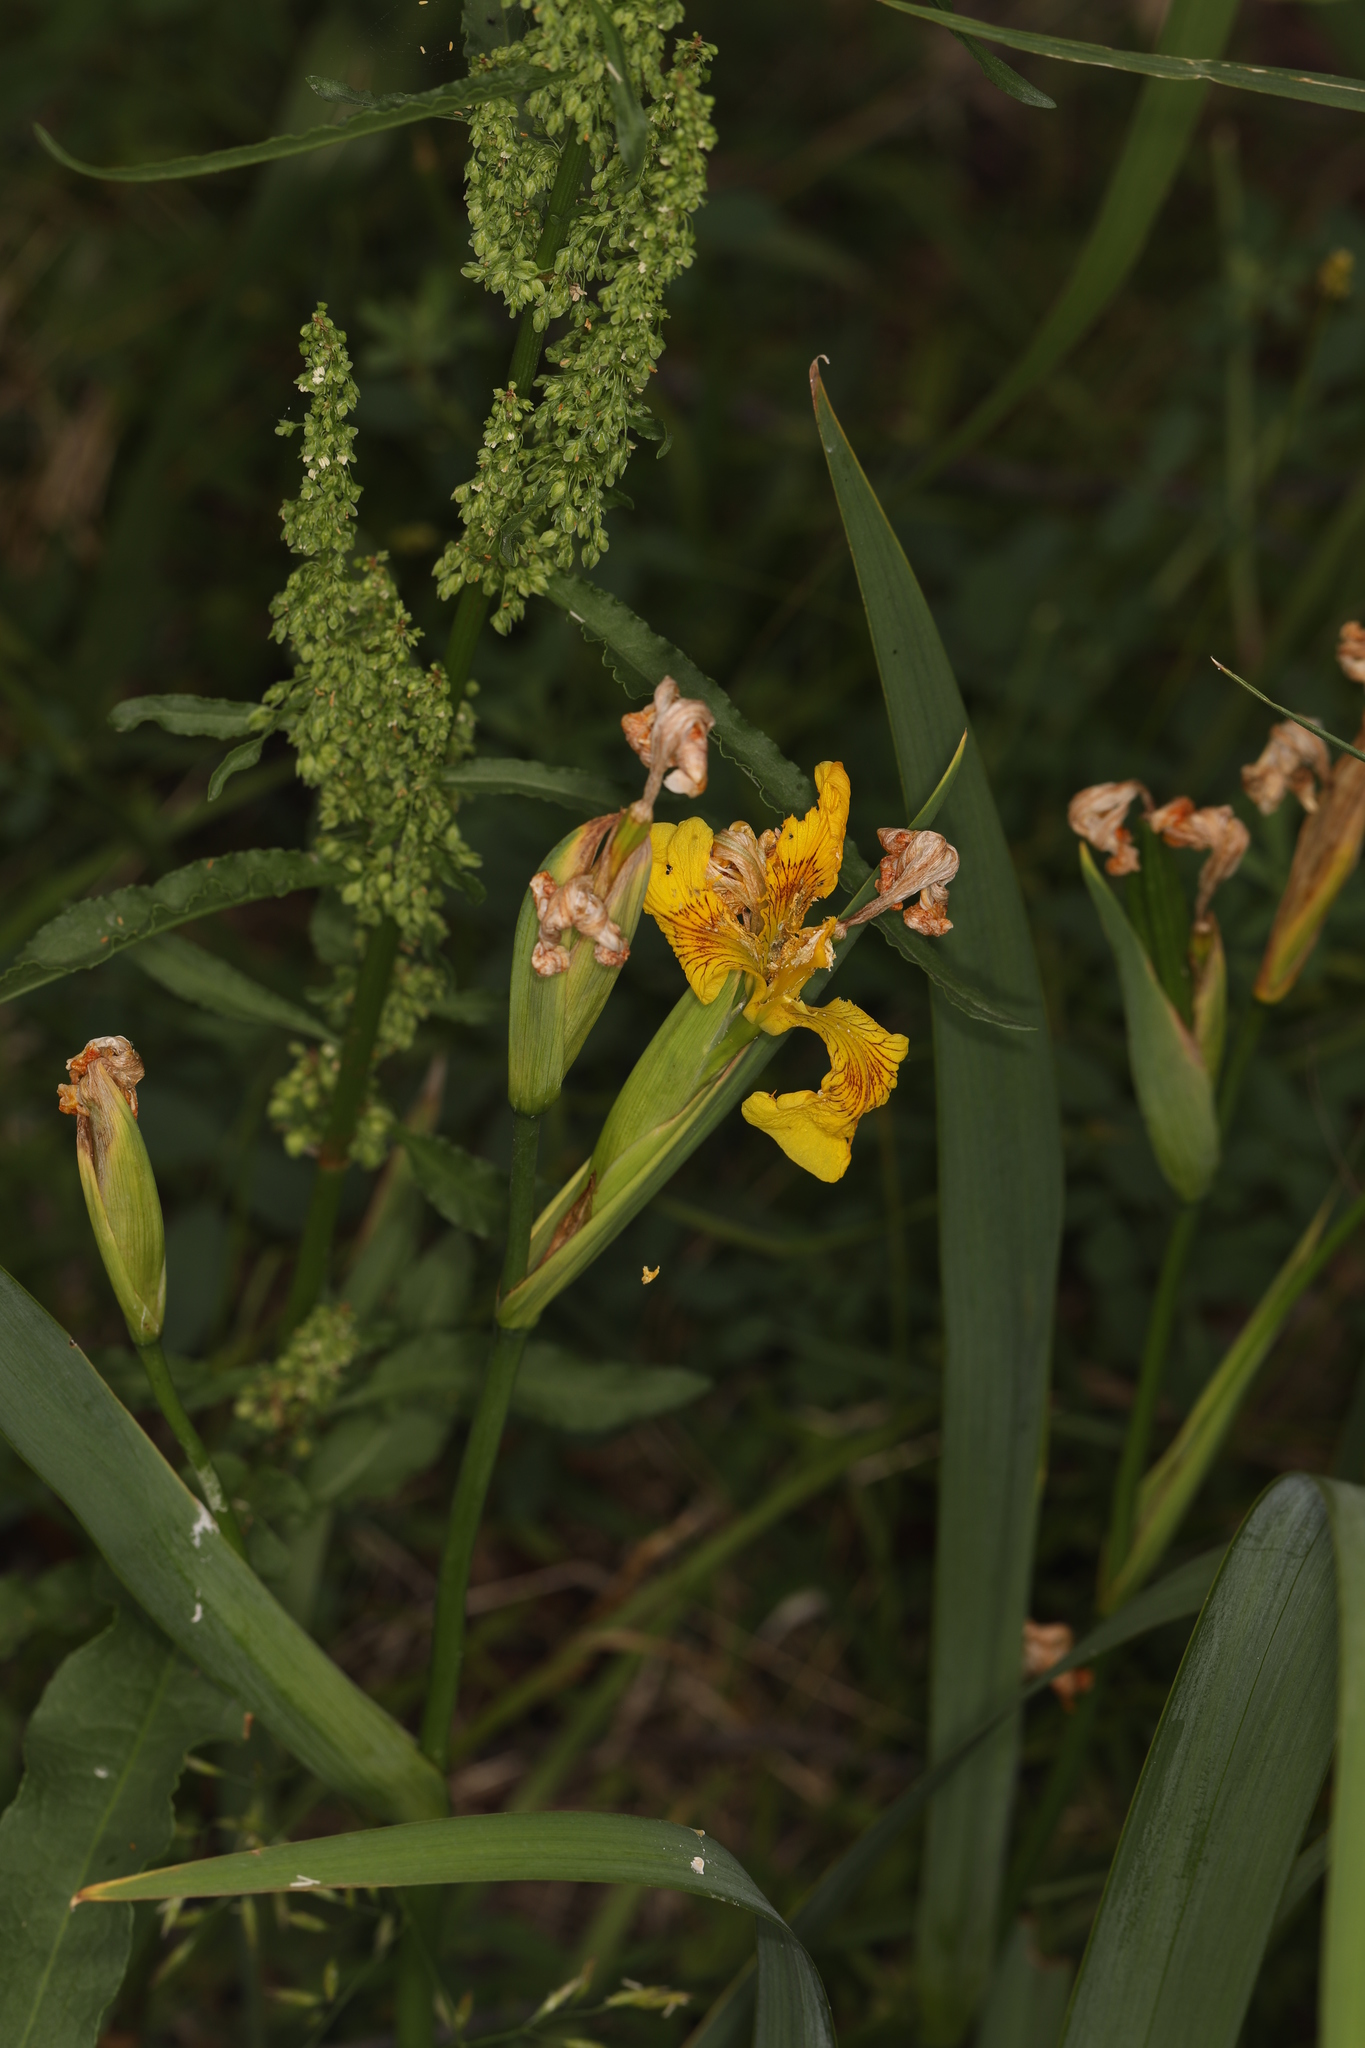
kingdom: Plantae
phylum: Tracheophyta
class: Liliopsida
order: Asparagales
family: Iridaceae
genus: Iris
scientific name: Iris pseudacorus
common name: Yellow flag
